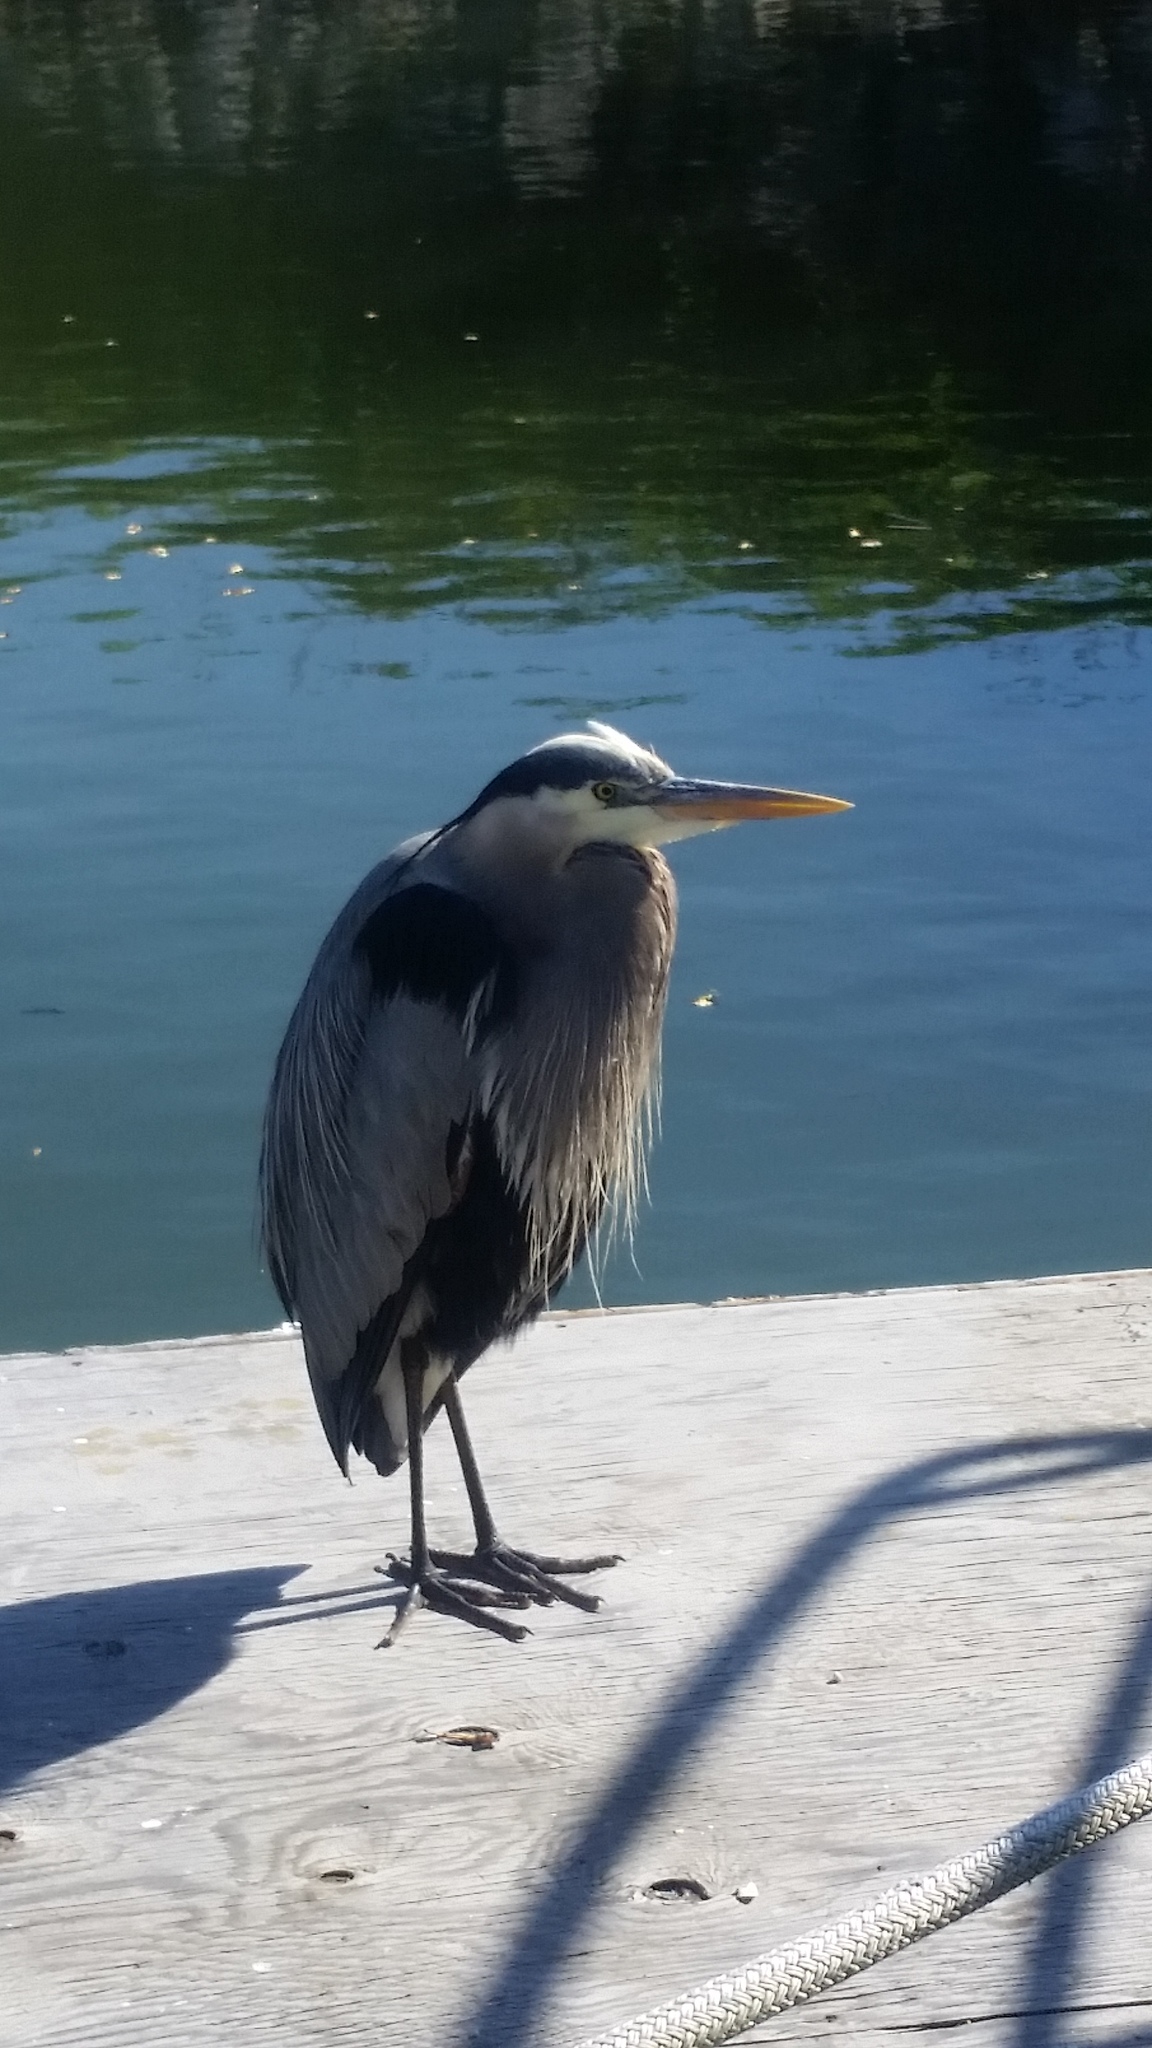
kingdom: Animalia
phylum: Chordata
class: Aves
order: Pelecaniformes
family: Ardeidae
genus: Ardea
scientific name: Ardea herodias
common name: Great blue heron
